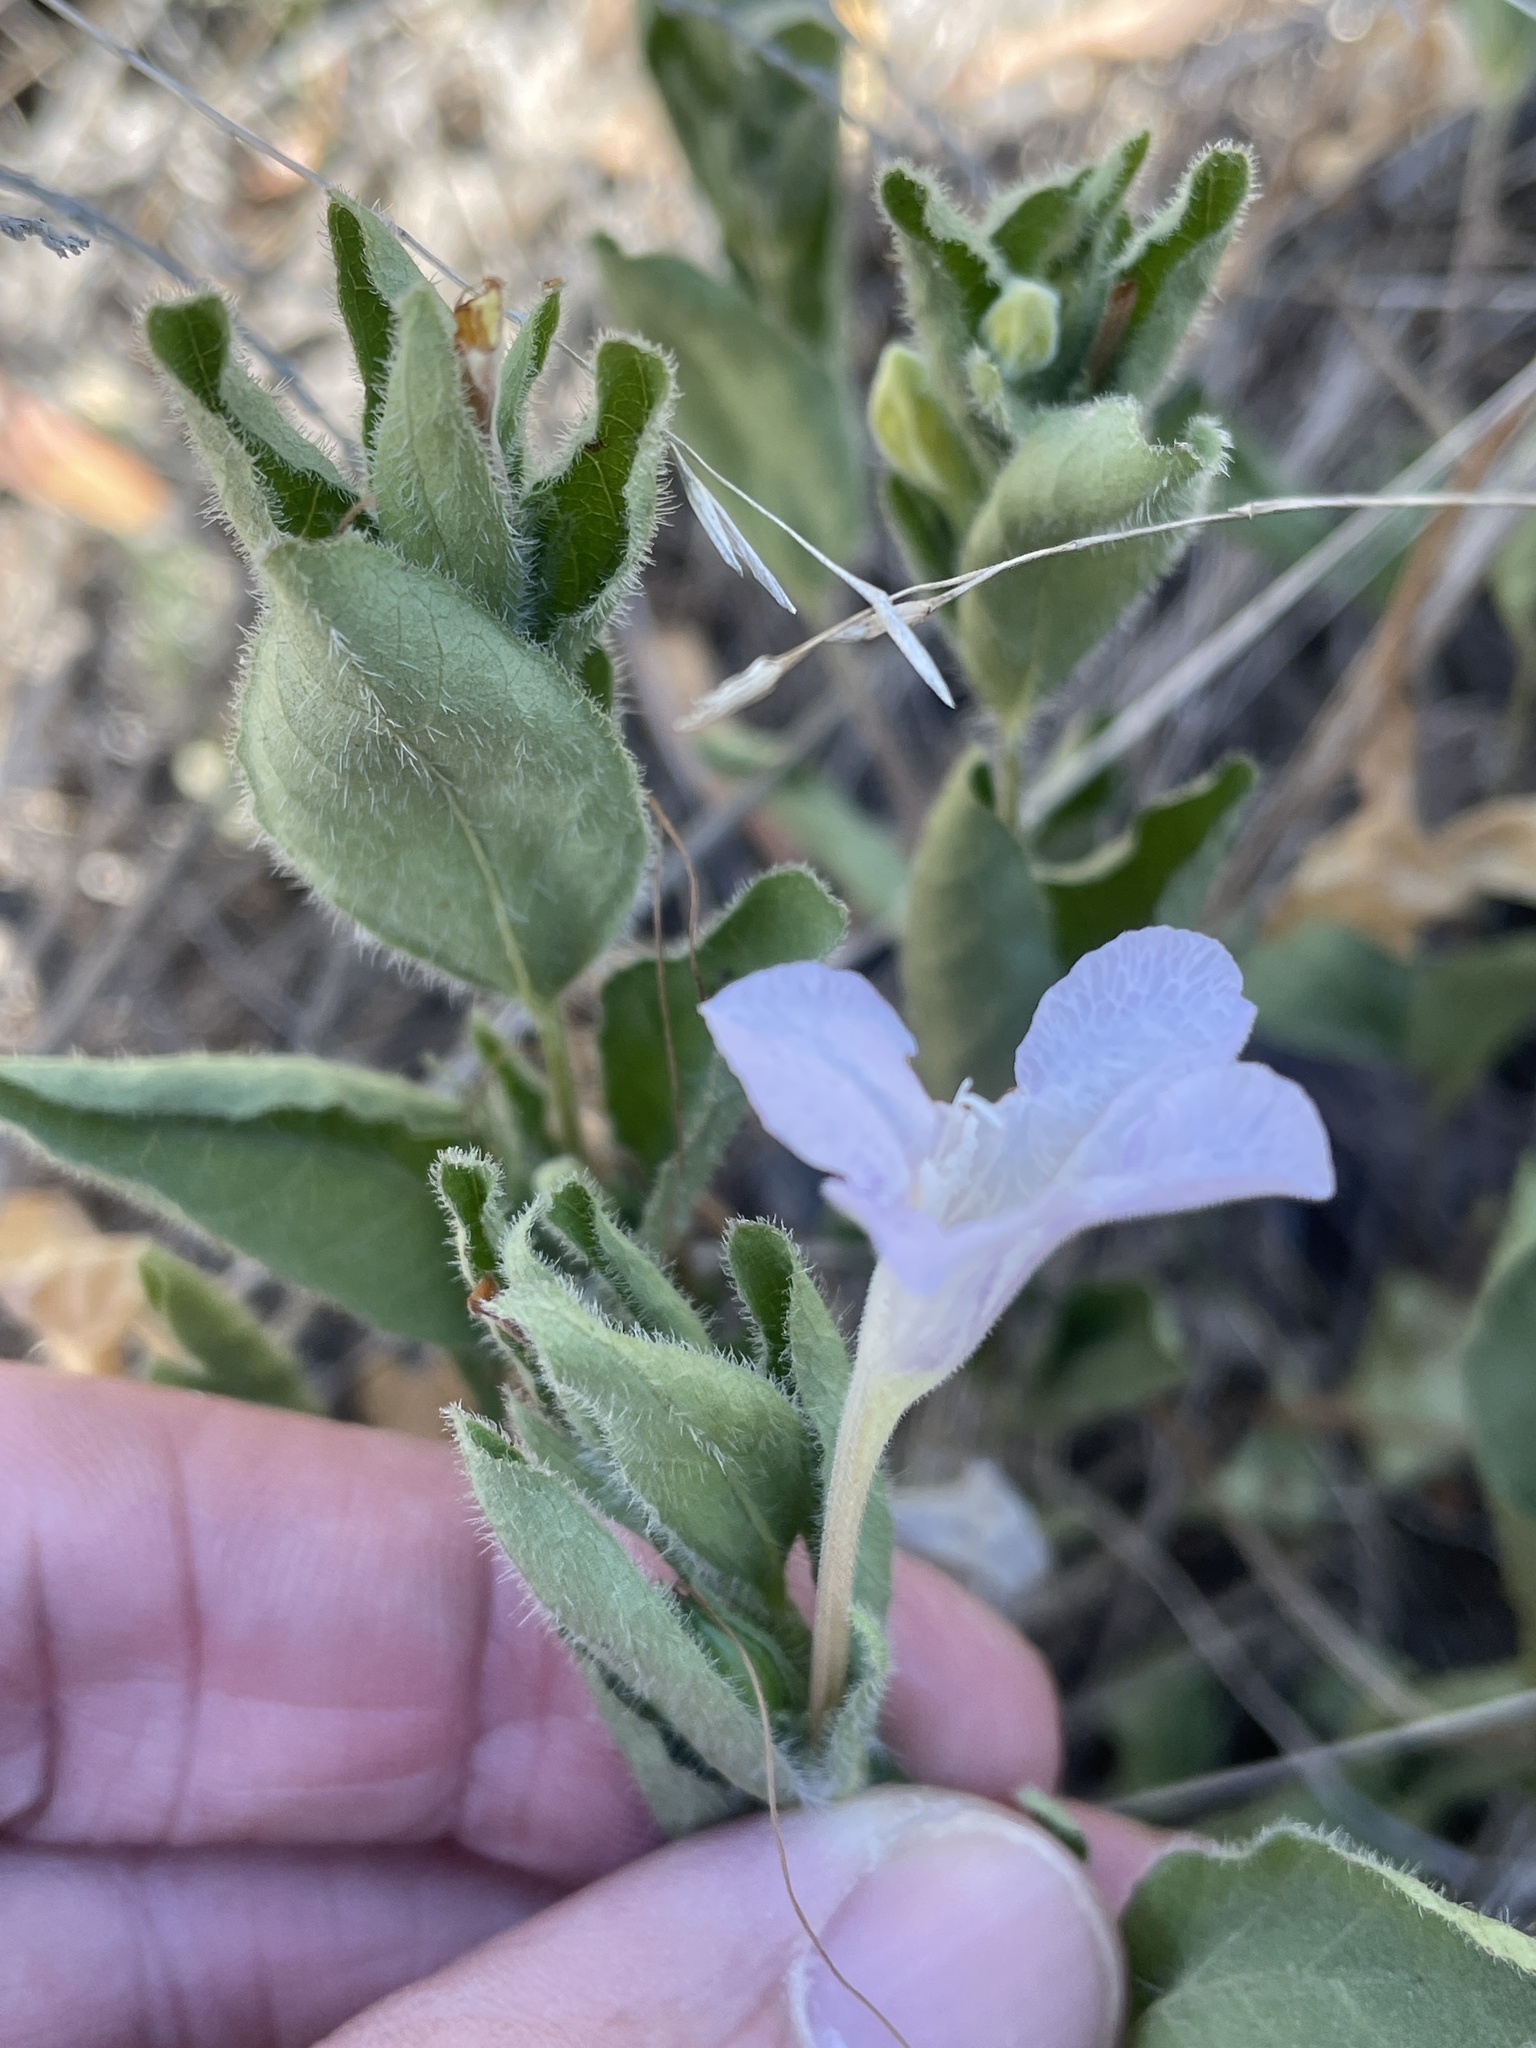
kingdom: Plantae
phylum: Tracheophyta
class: Magnoliopsida
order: Lamiales
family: Acanthaceae
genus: Ruellia
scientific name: Ruellia humilis
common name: Fringe-leaf ruellia
